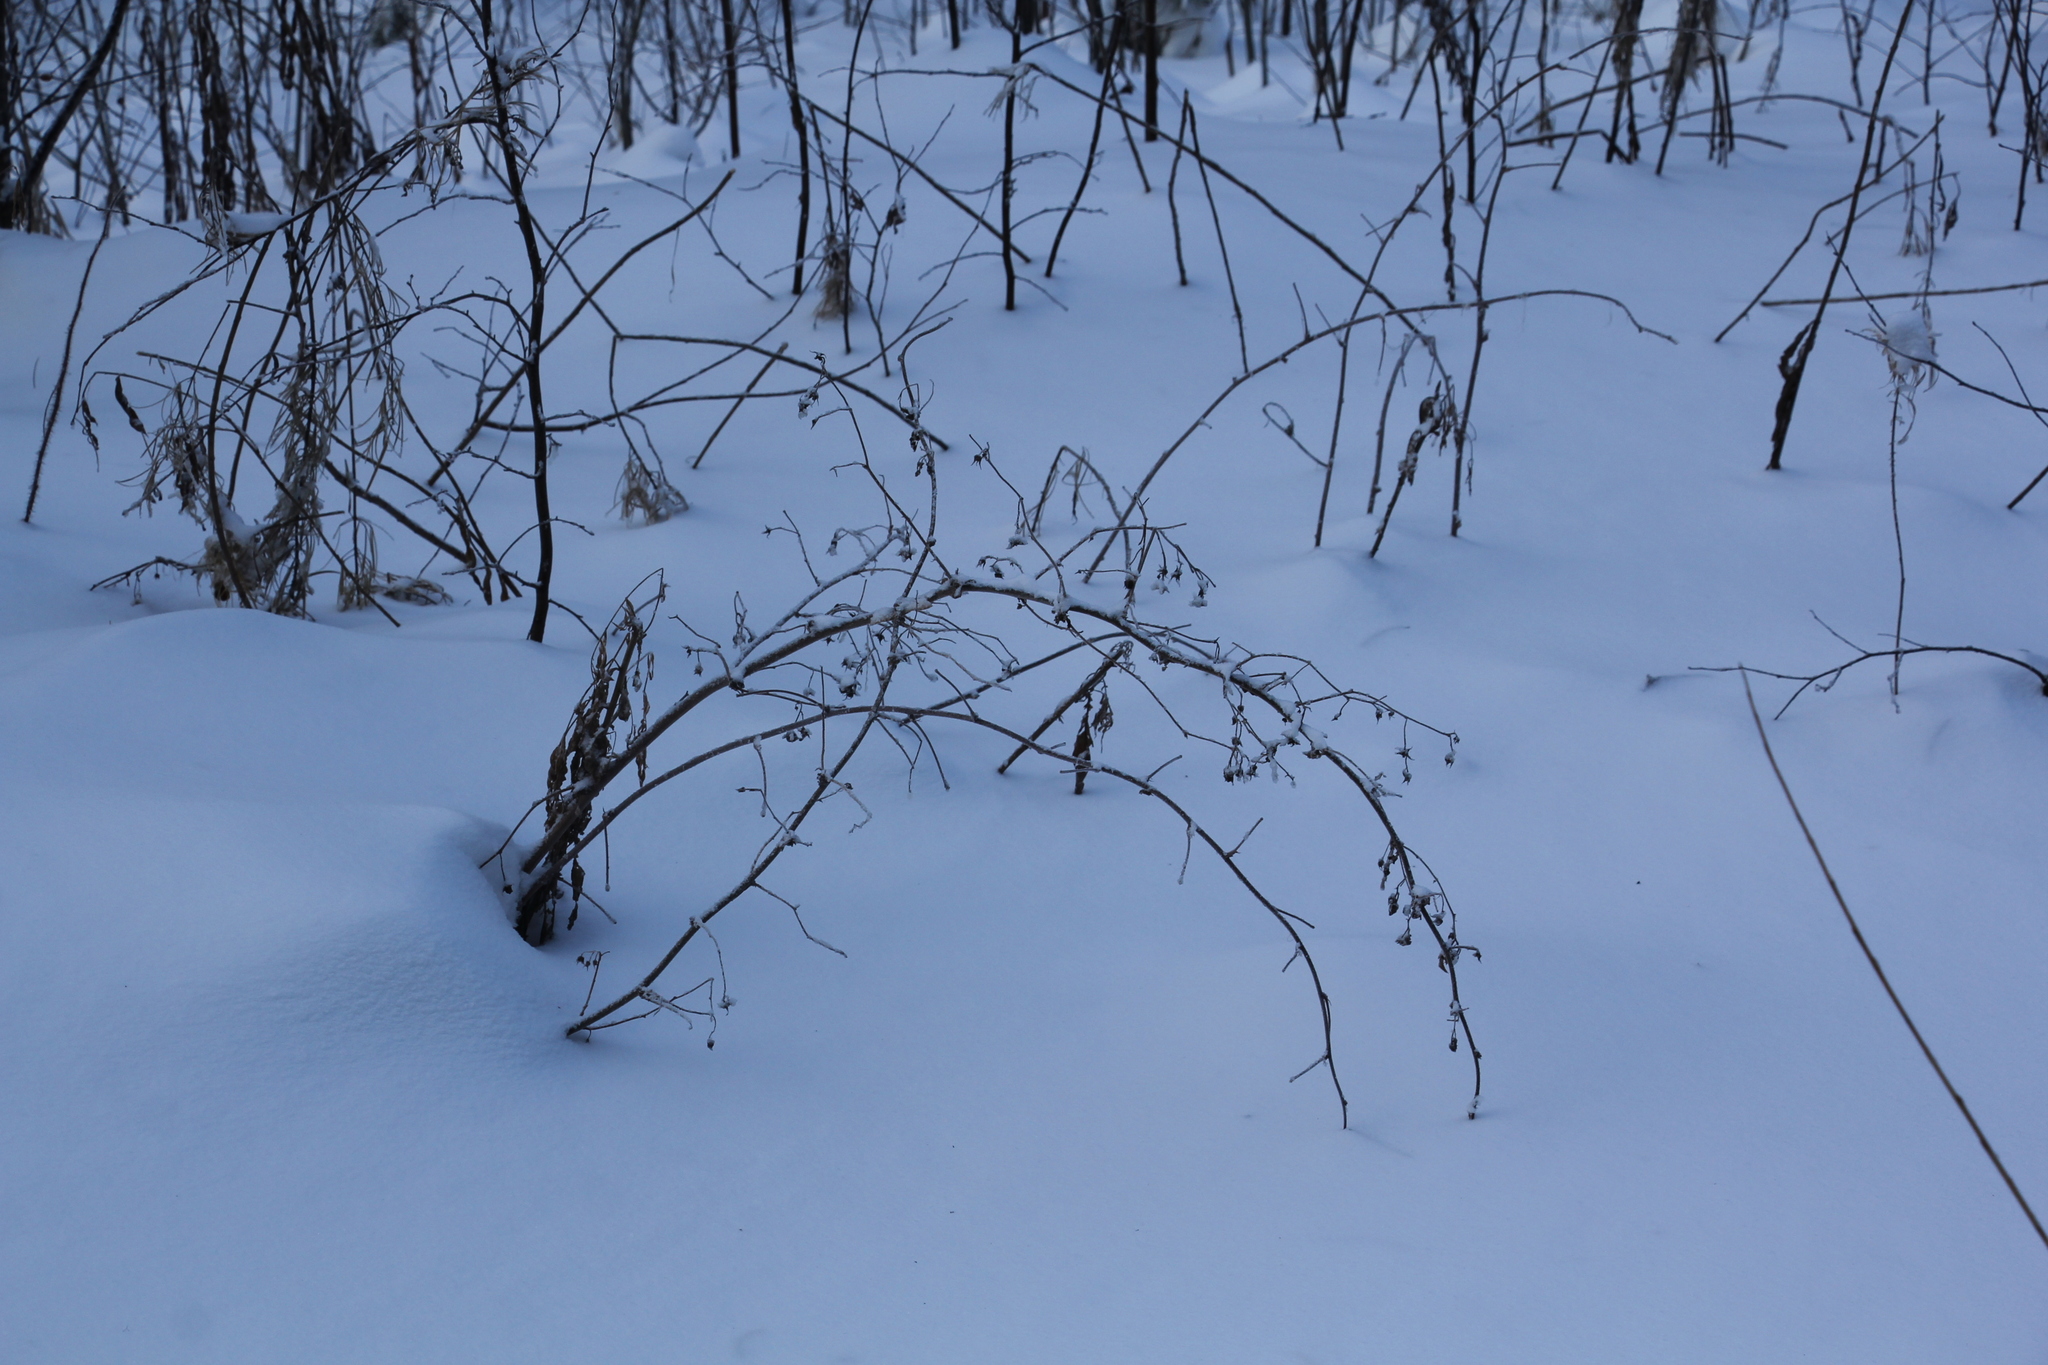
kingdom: Plantae
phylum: Tracheophyta
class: Magnoliopsida
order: Rosales
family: Rosaceae
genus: Rubus
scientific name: Rubus idaeus
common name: Raspberry
